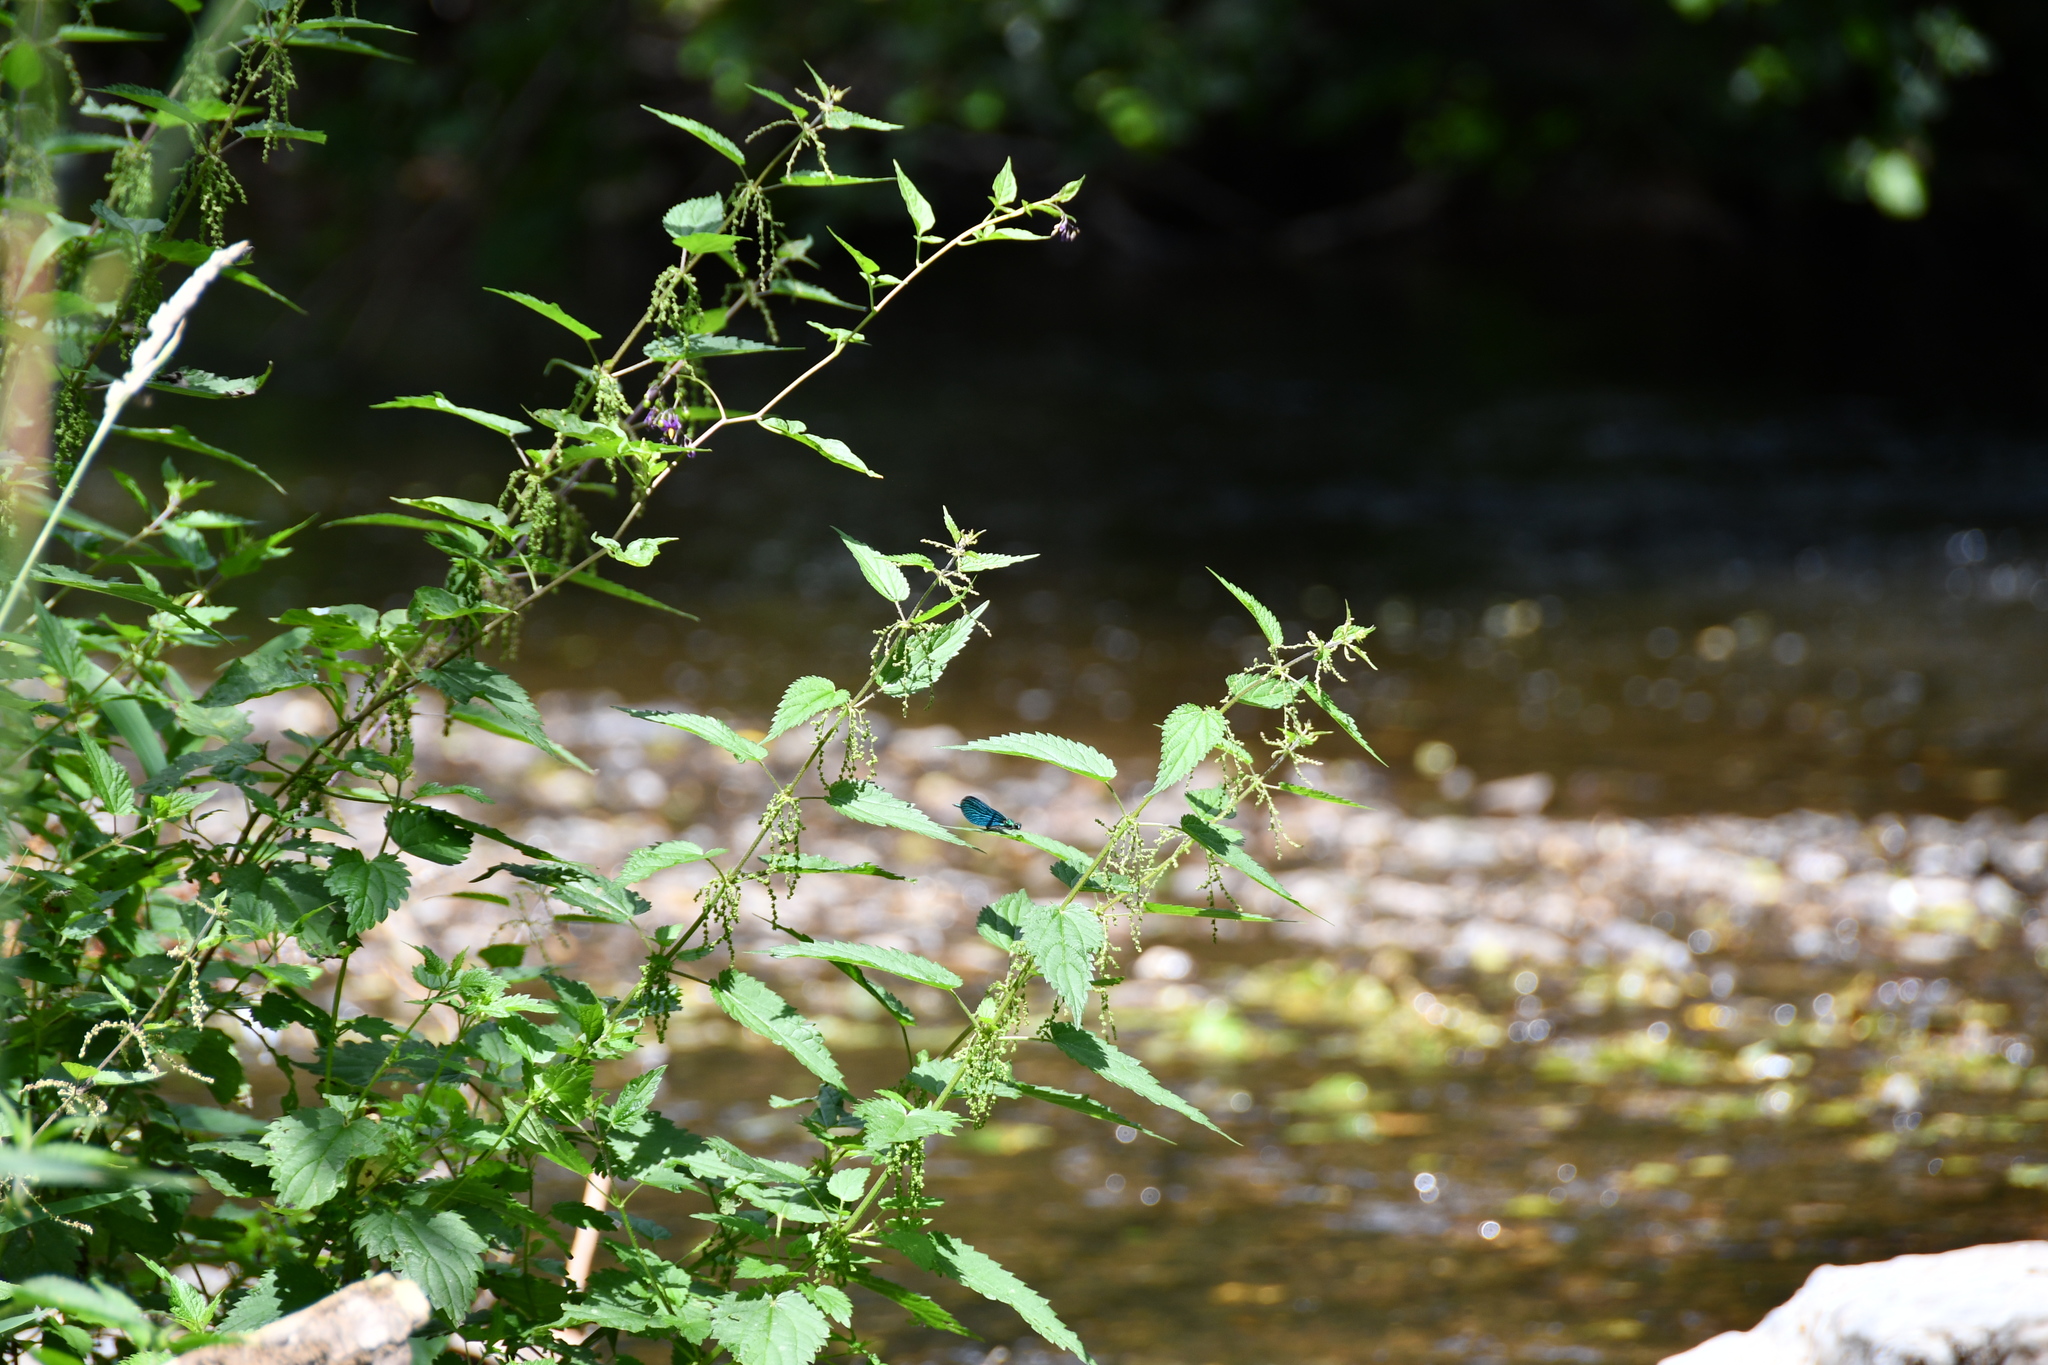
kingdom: Animalia
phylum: Arthropoda
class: Insecta
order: Odonata
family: Calopterygidae
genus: Calopteryx
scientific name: Calopteryx virgo
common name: Beautiful demoiselle
